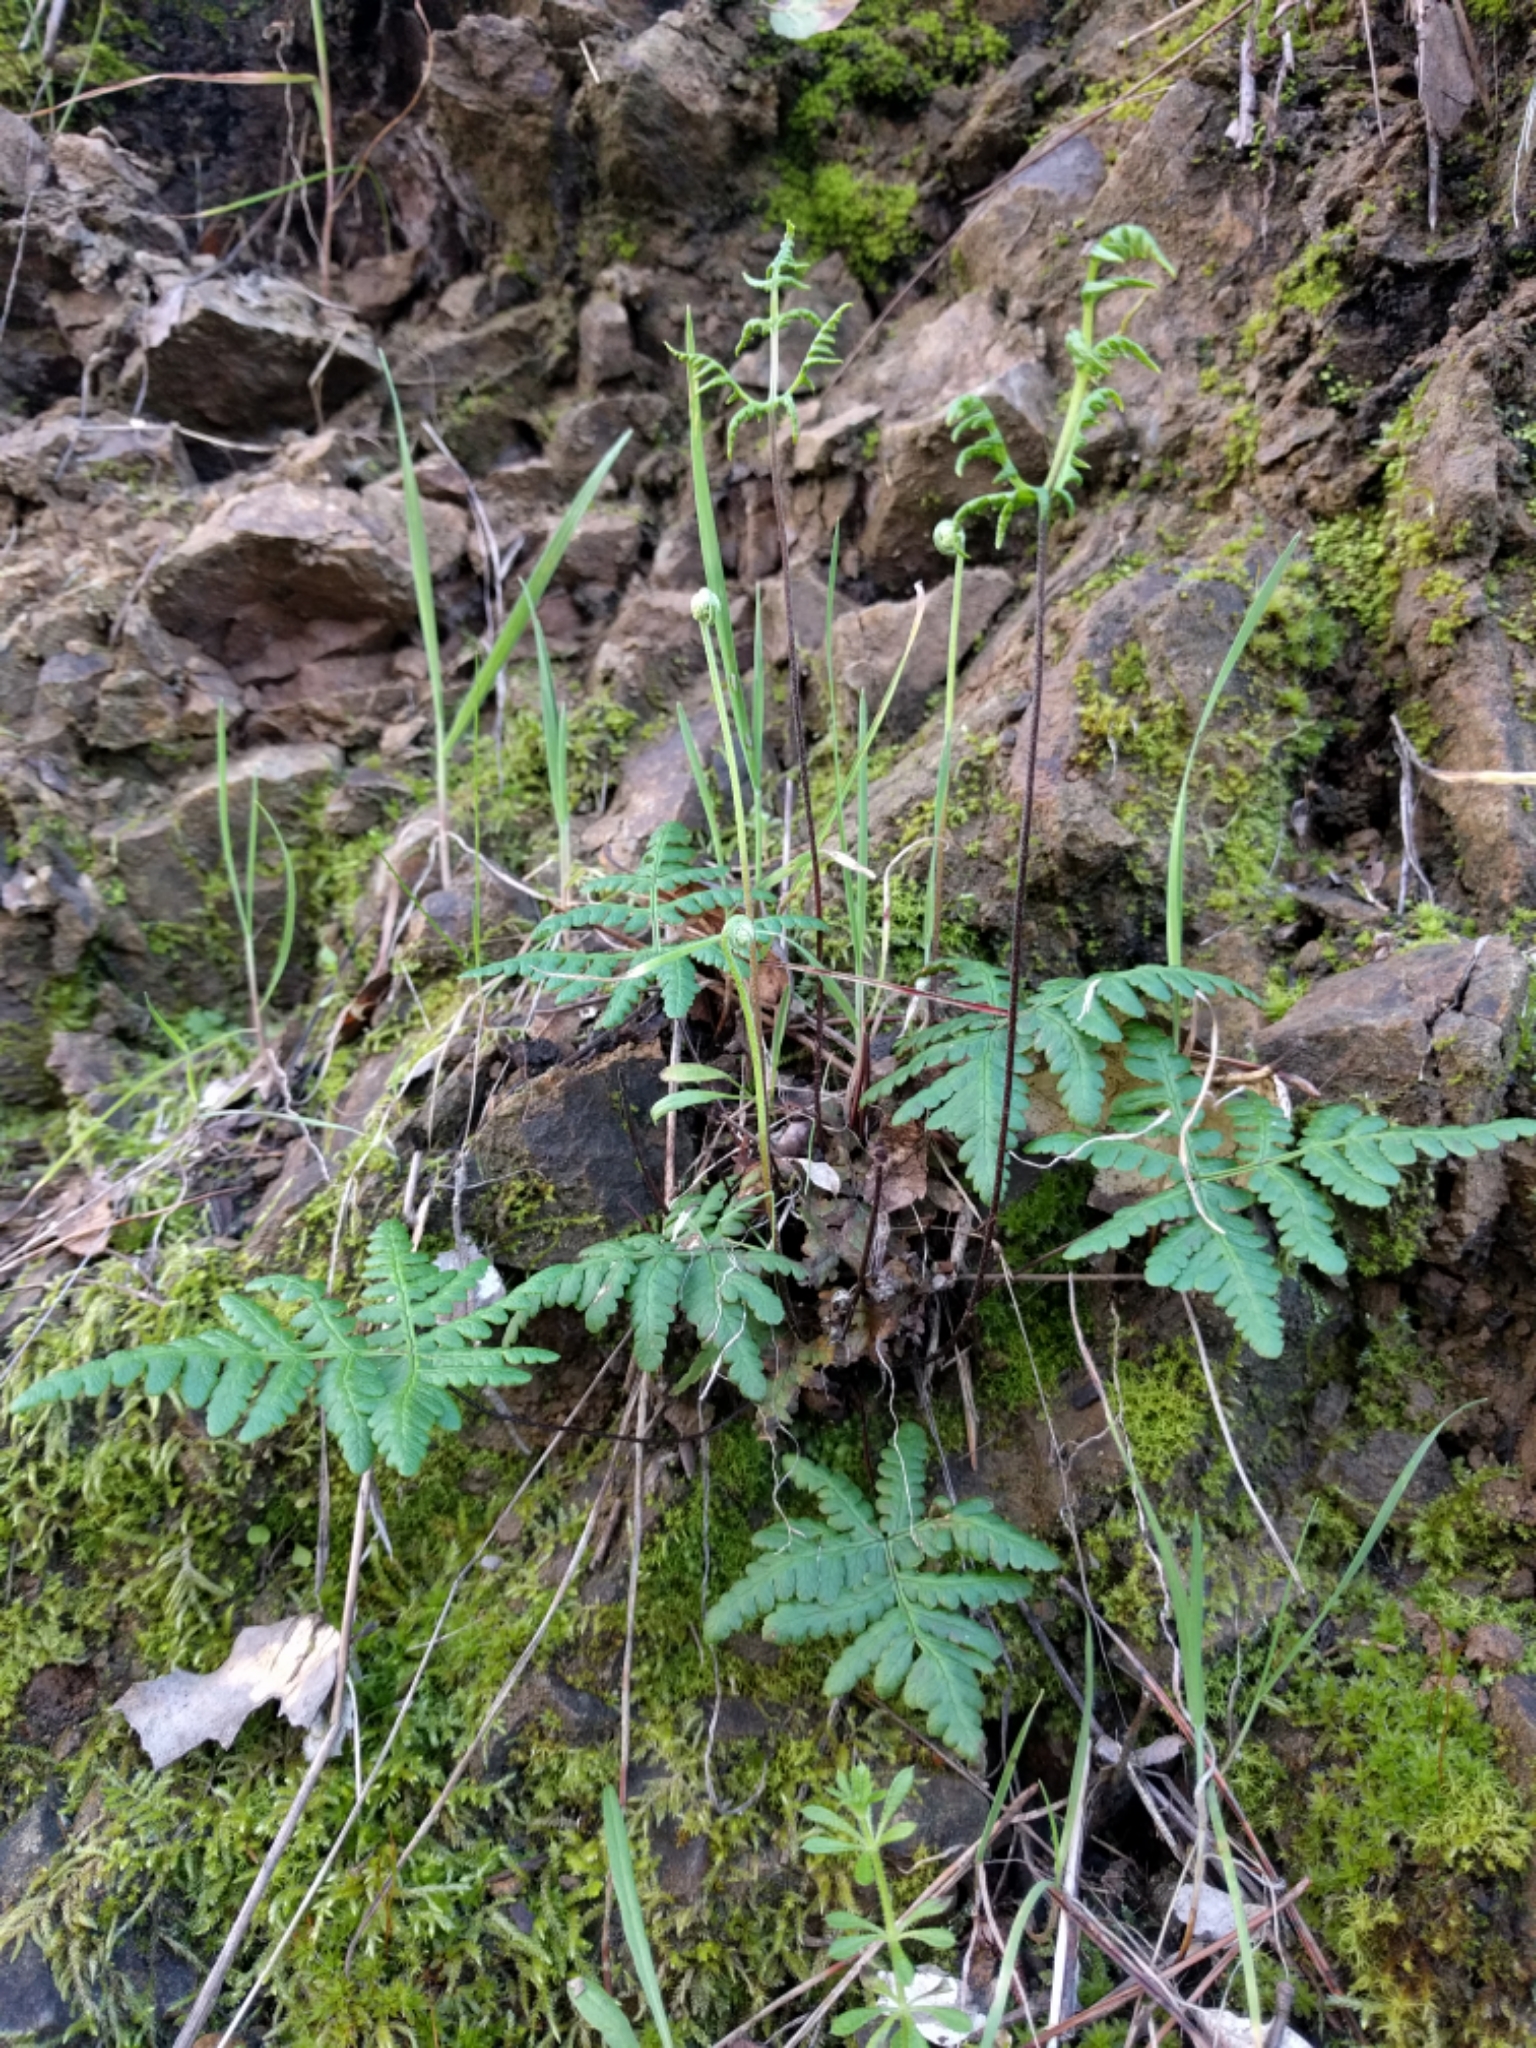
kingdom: Plantae
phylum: Tracheophyta
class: Polypodiopsida
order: Polypodiales
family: Pteridaceae
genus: Pentagramma
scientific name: Pentagramma triangularis
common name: Gold fern
